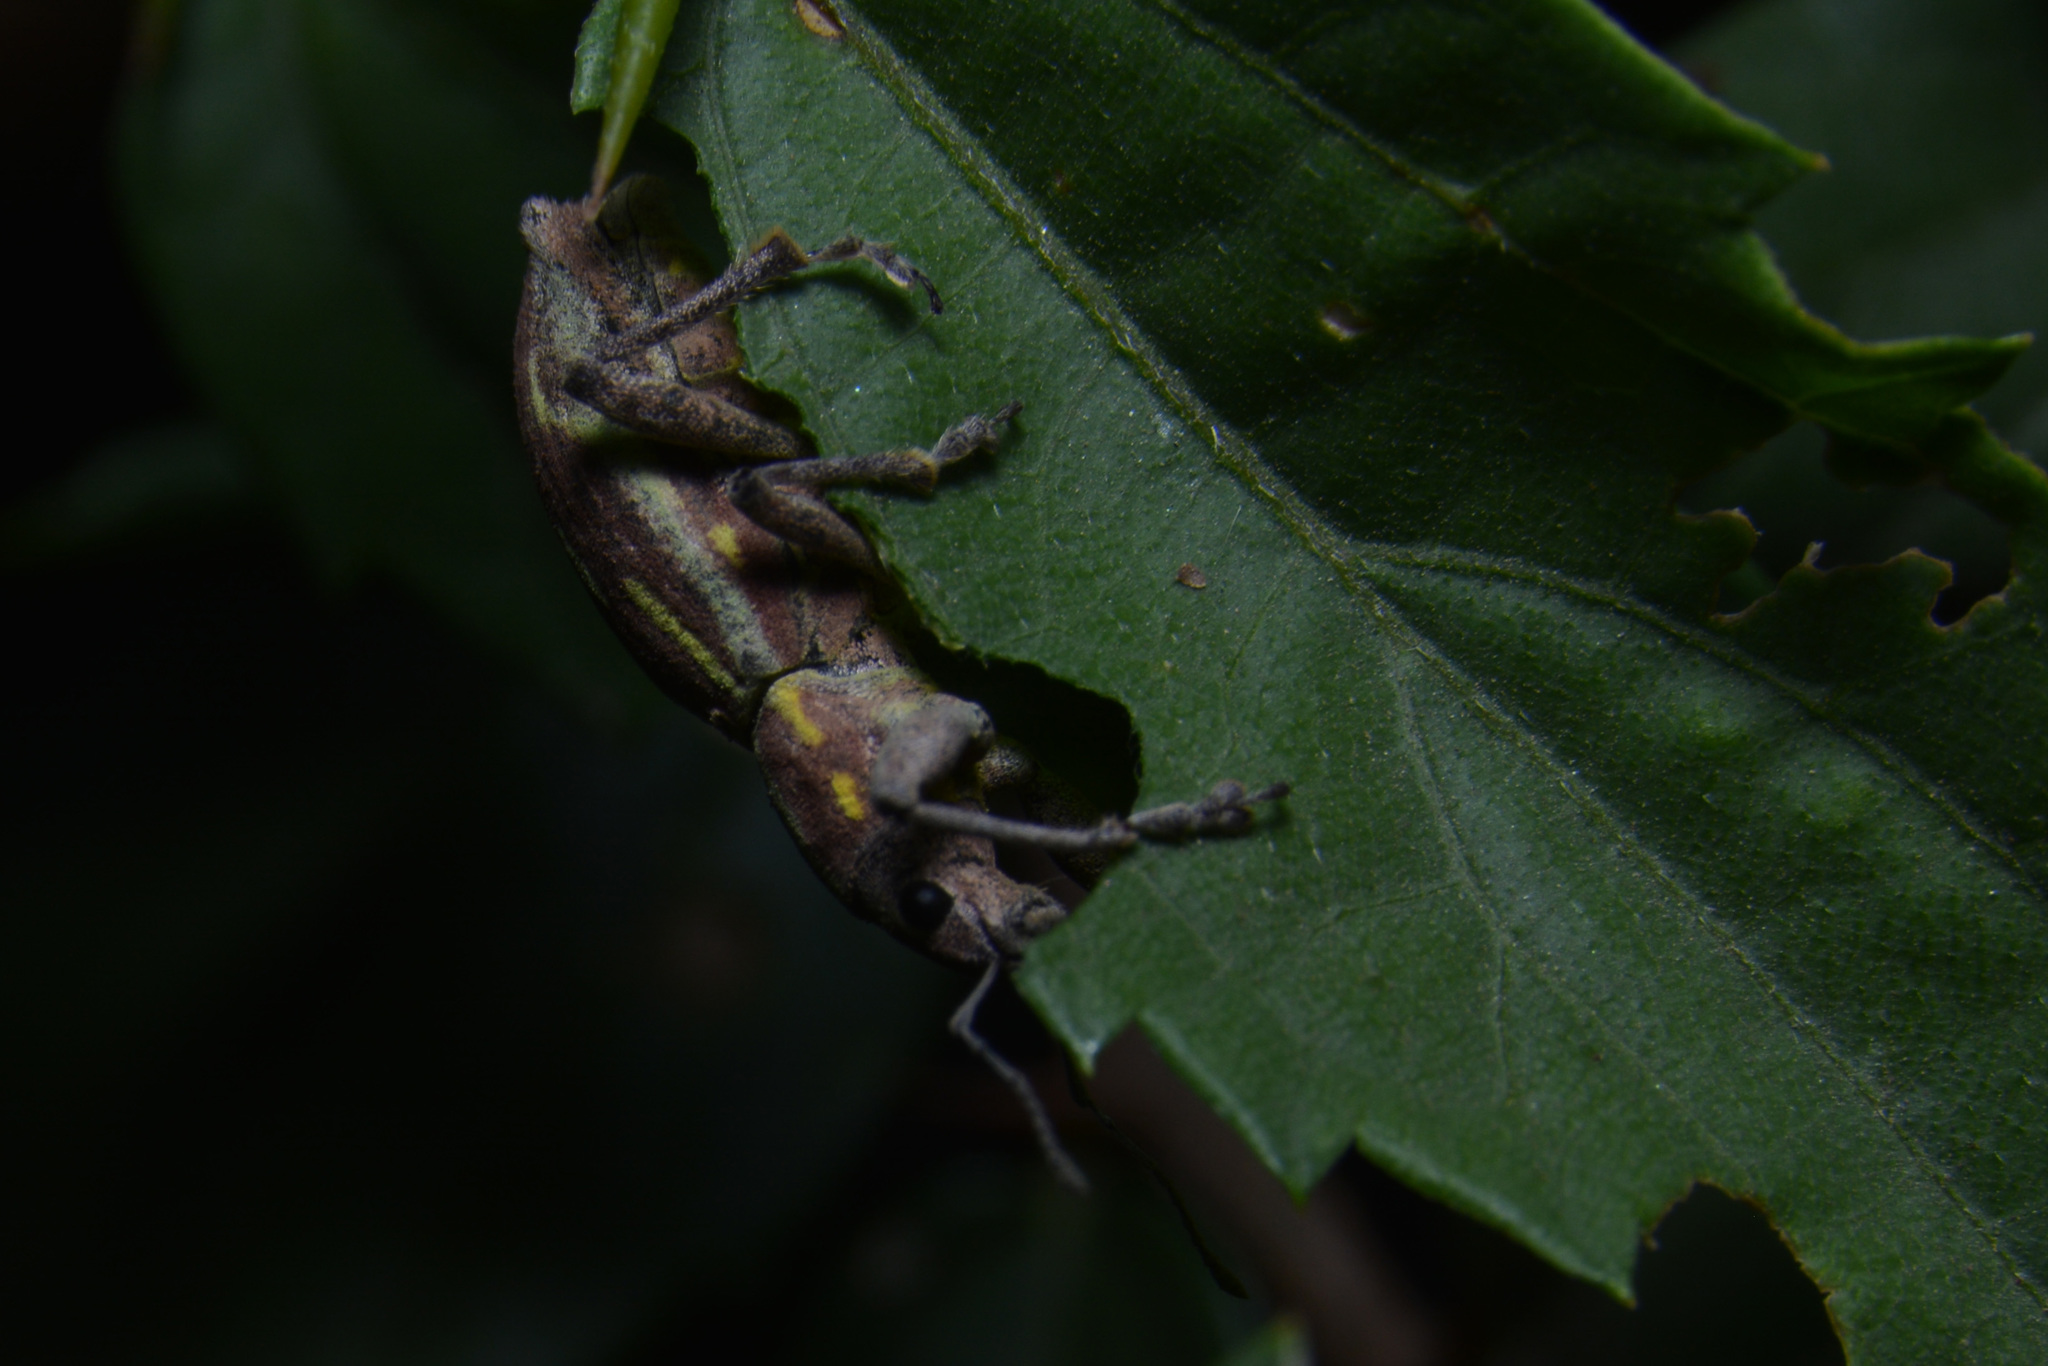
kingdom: Animalia
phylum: Arthropoda
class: Insecta
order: Coleoptera
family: Curculionidae
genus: Naupactus
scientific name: Naupactus xanthographus
